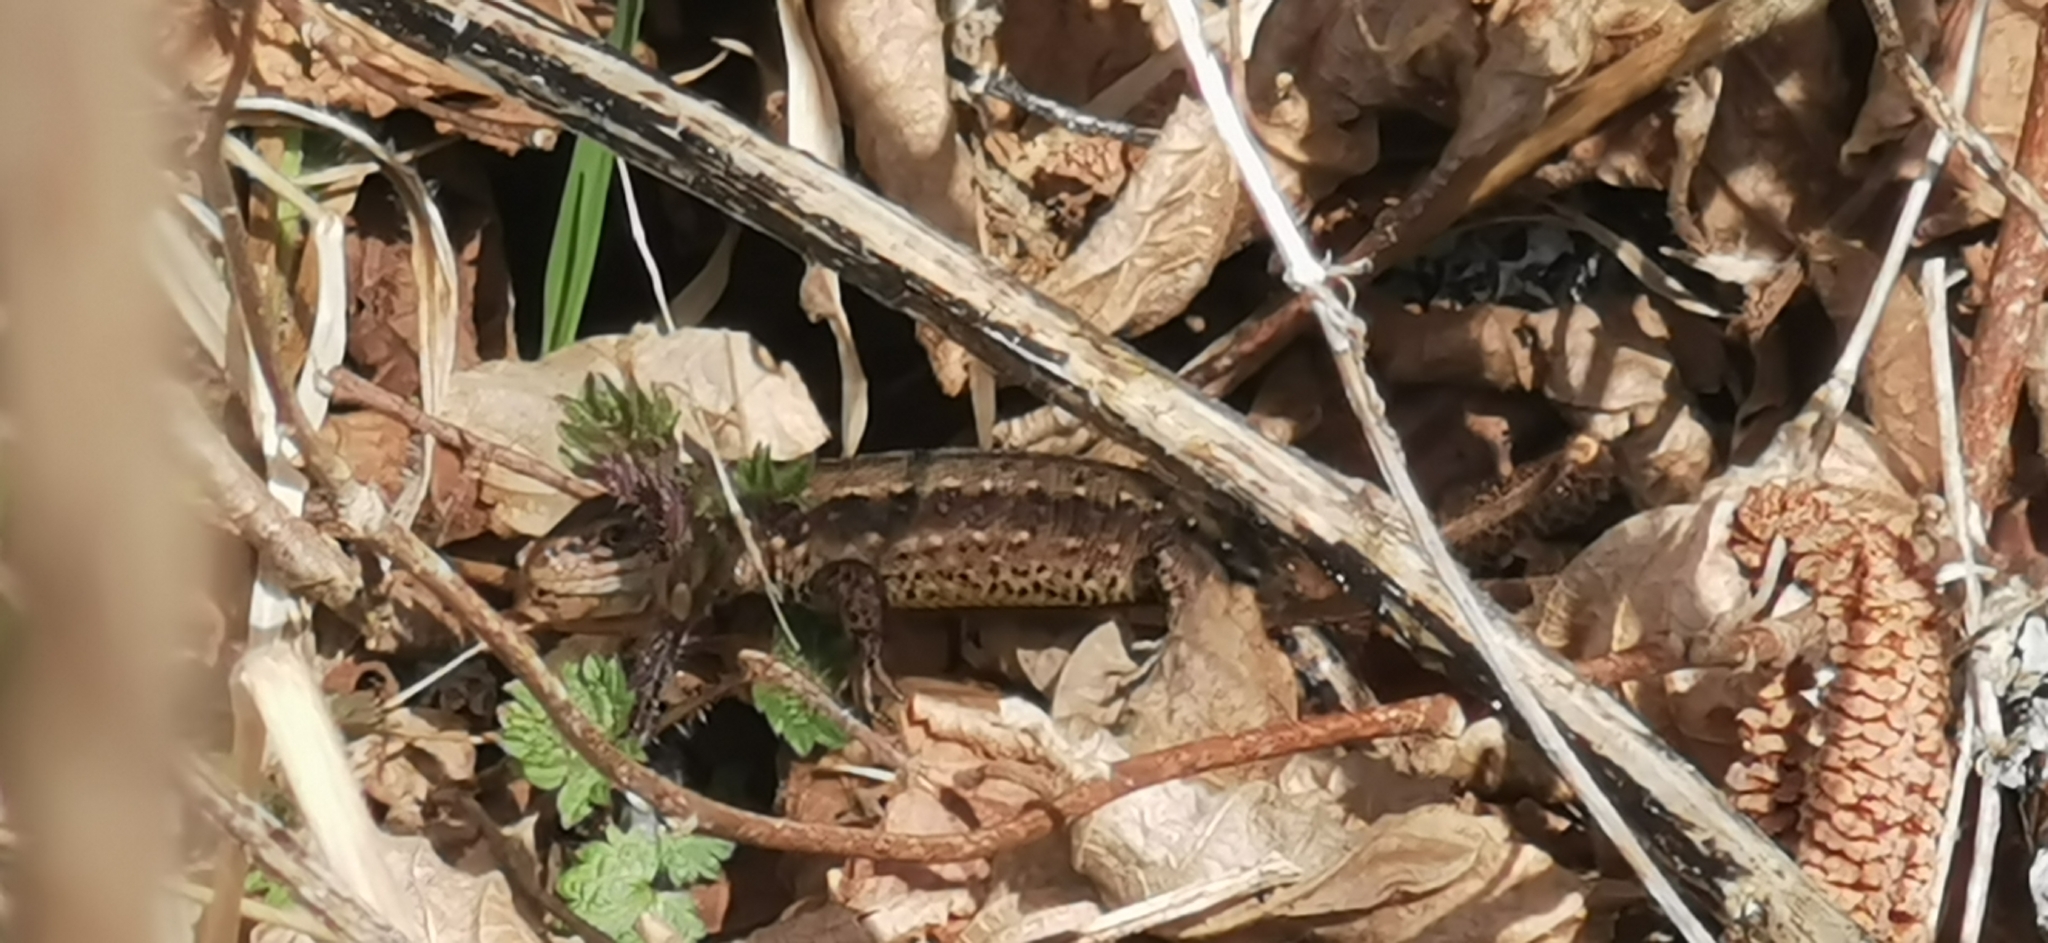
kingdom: Animalia
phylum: Chordata
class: Squamata
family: Lacertidae
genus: Zootoca
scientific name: Zootoca vivipara
